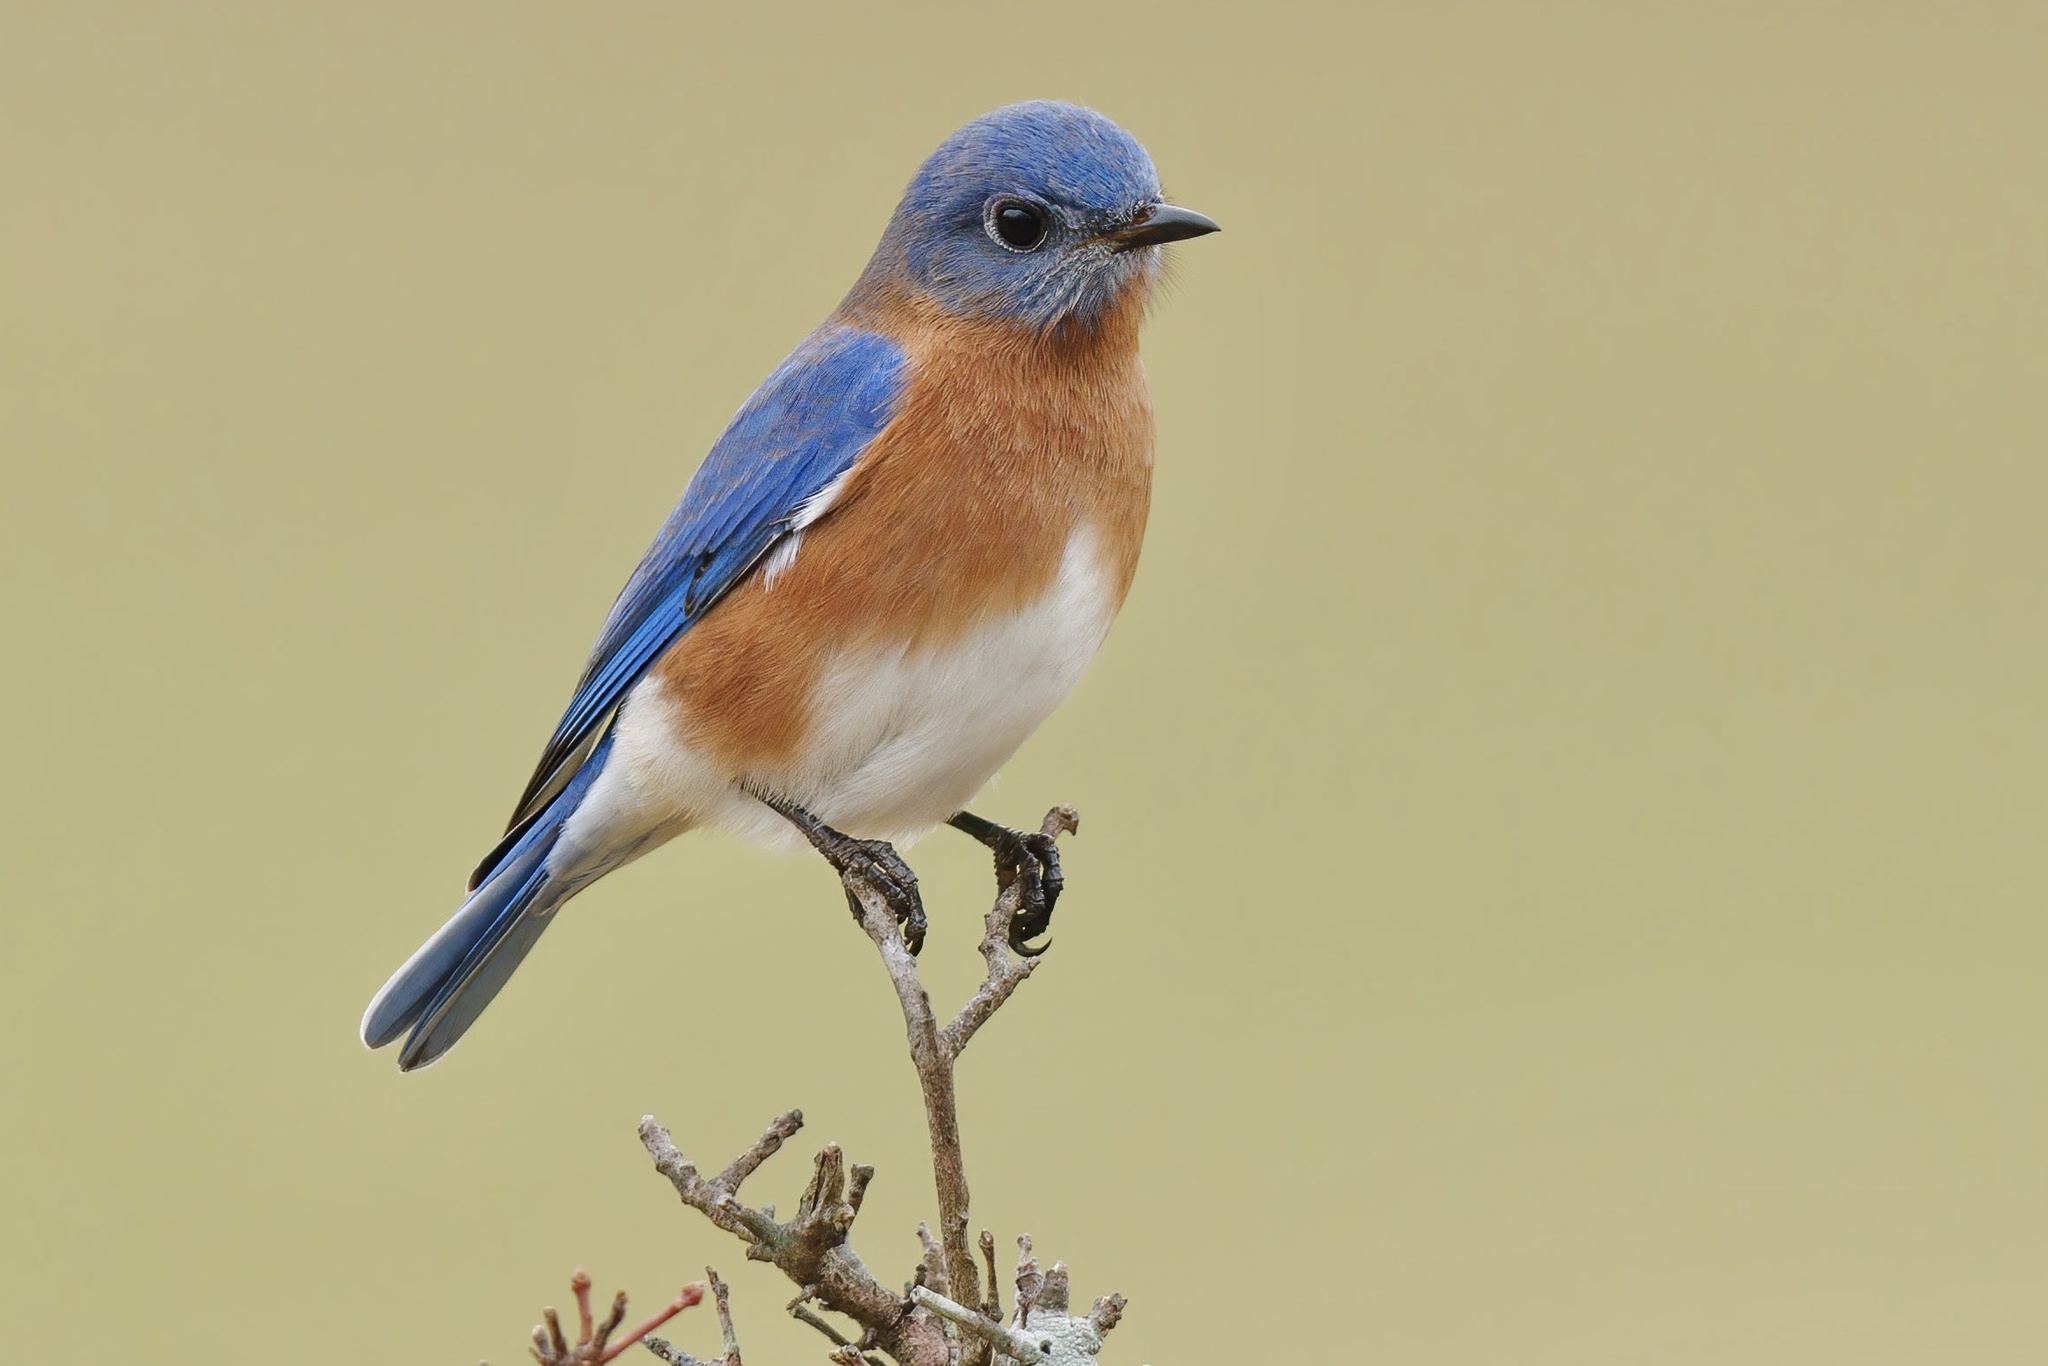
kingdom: Animalia
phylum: Chordata
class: Aves
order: Passeriformes
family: Turdidae
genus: Sialia
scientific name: Sialia sialis
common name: Eastern bluebird
